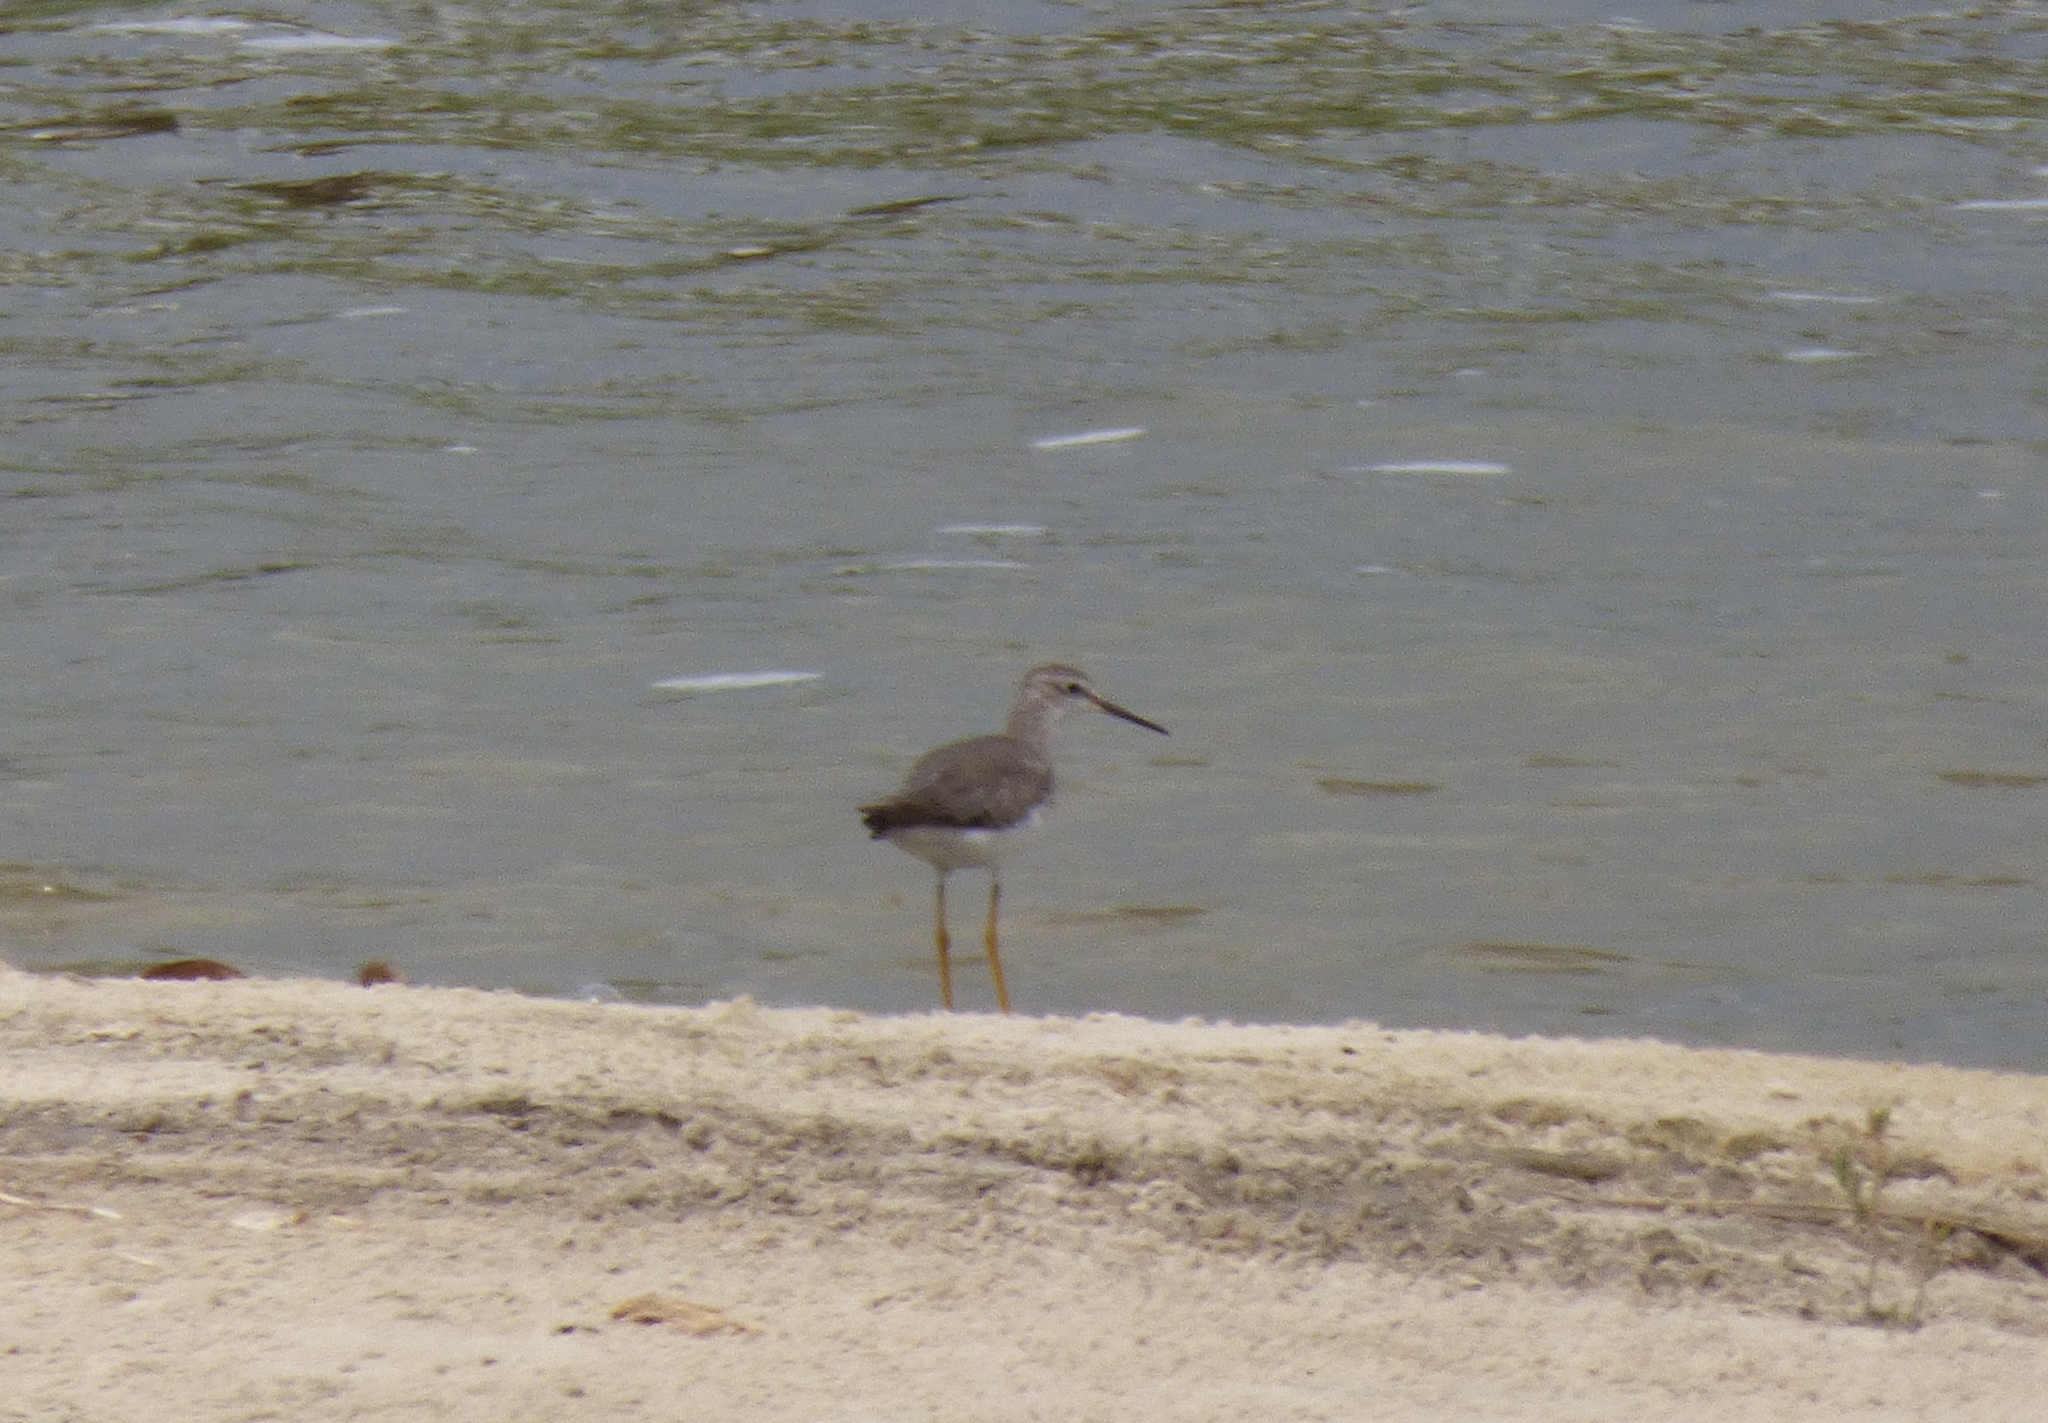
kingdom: Animalia
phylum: Chordata
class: Aves
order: Charadriiformes
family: Scolopacidae
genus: Tringa
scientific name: Tringa melanoleuca
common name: Greater yellowlegs
